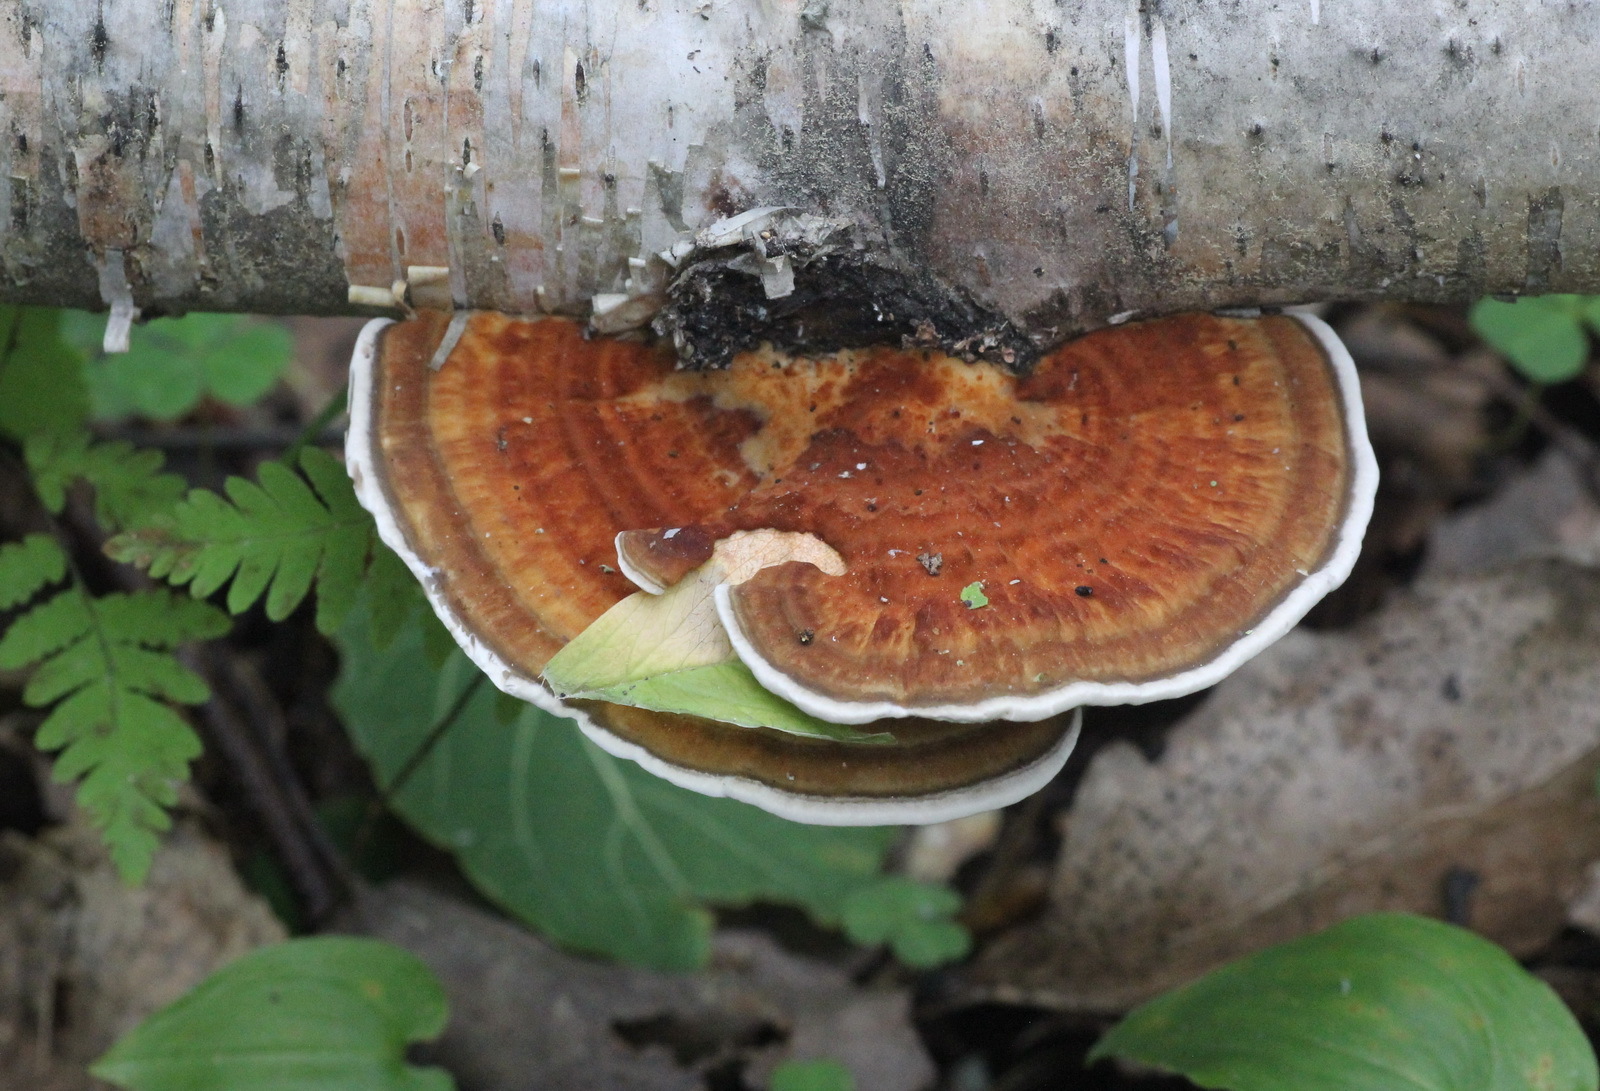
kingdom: Fungi
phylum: Basidiomycota
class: Agaricomycetes
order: Polyporales
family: Polyporaceae
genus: Daedaleopsis
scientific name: Daedaleopsis septentrionalis
